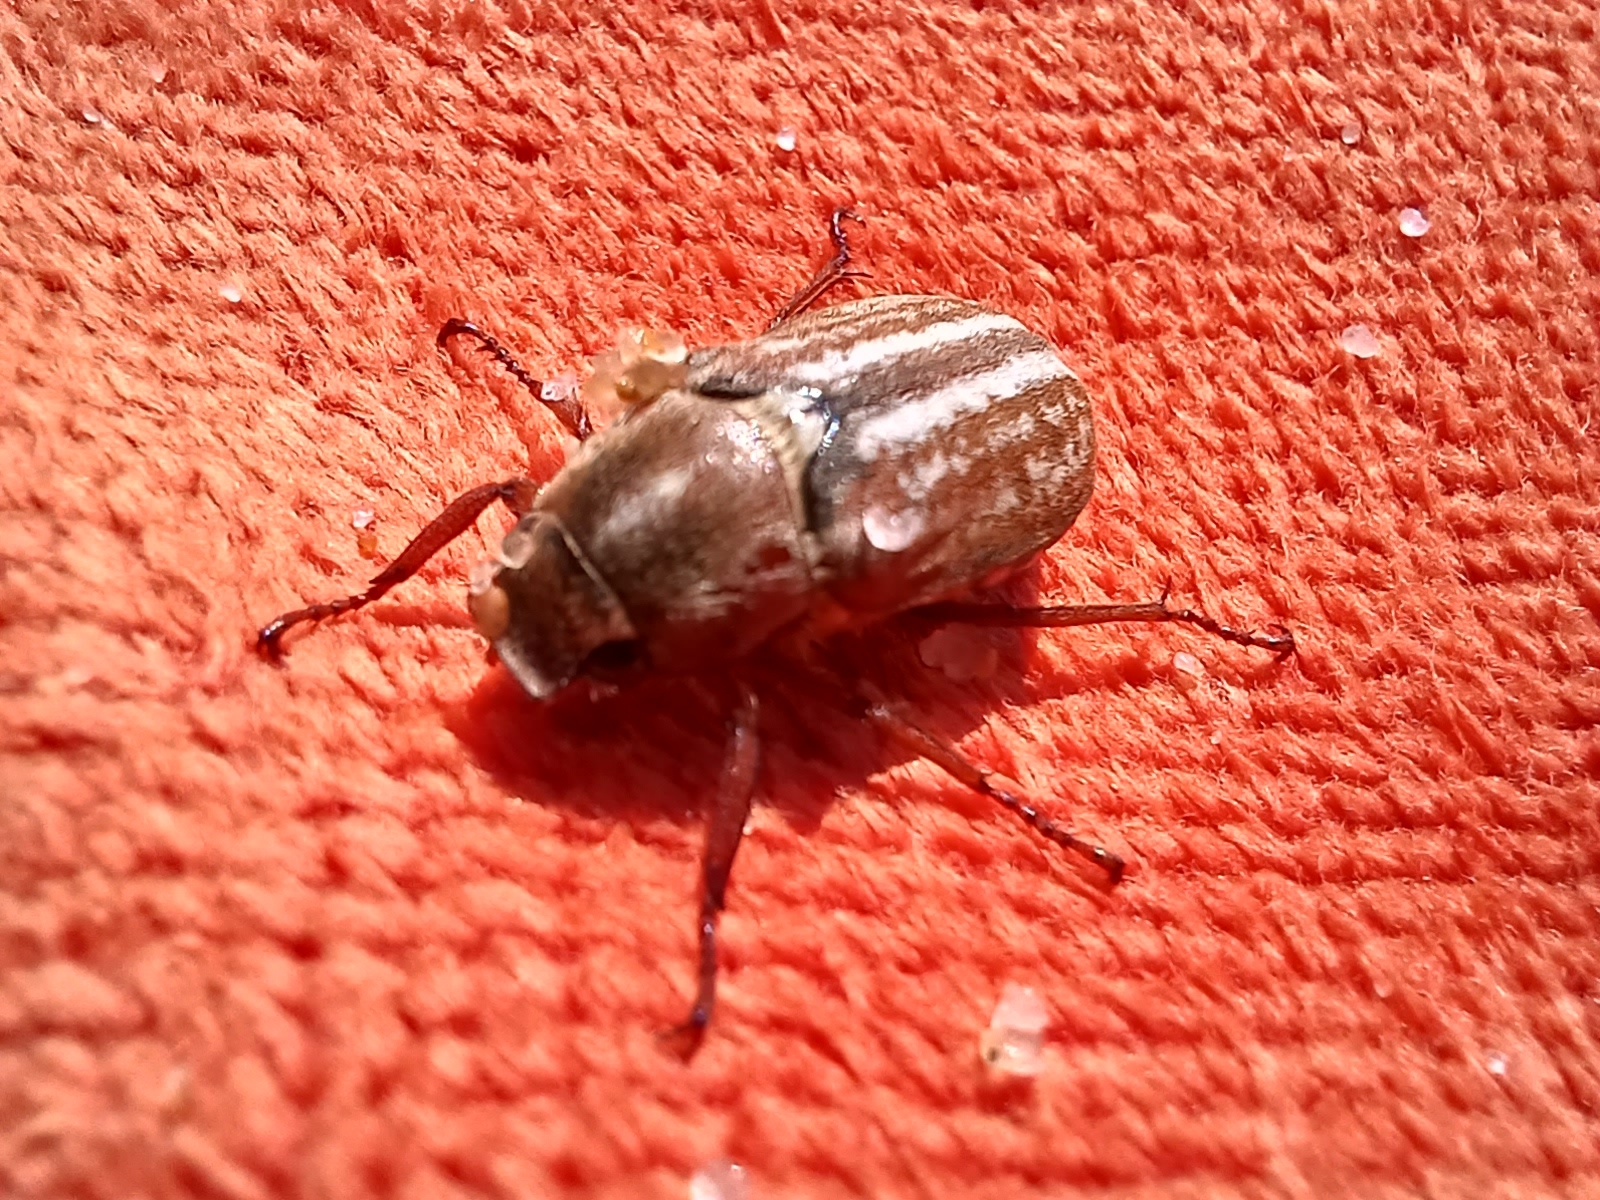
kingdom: Animalia
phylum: Arthropoda
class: Insecta
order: Coleoptera
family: Scarabaeidae
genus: Anoxia
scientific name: Anoxia australis
